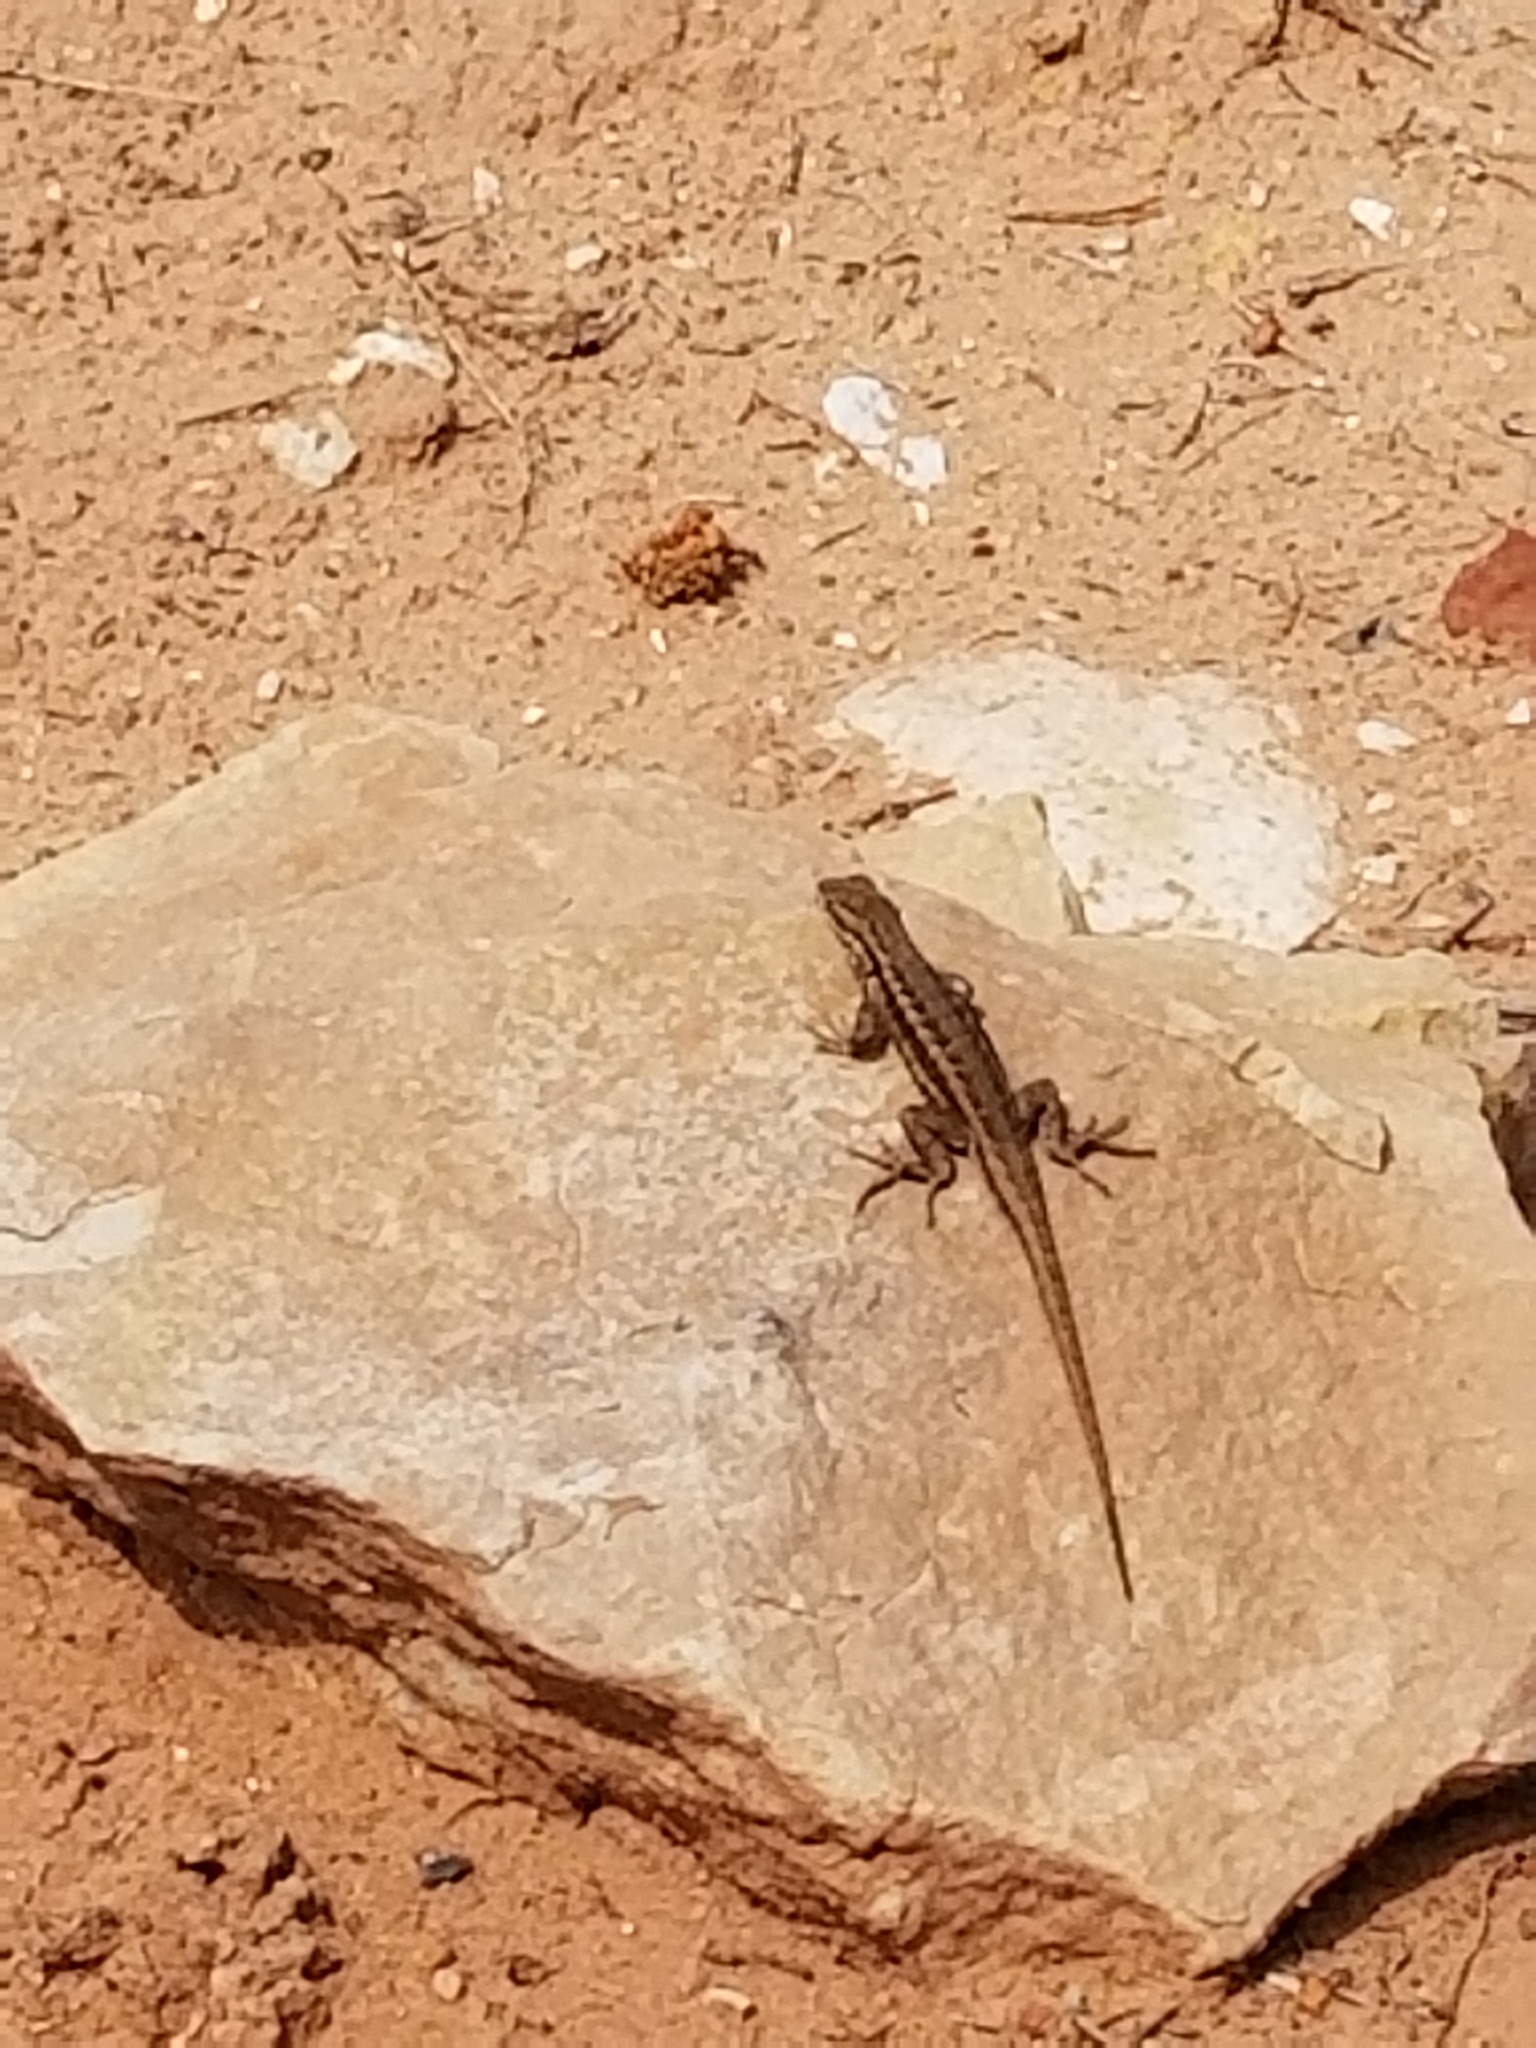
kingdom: Animalia
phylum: Chordata
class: Squamata
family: Phrynosomatidae
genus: Sceloporus
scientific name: Sceloporus graciosus
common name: Sagebrush lizard
